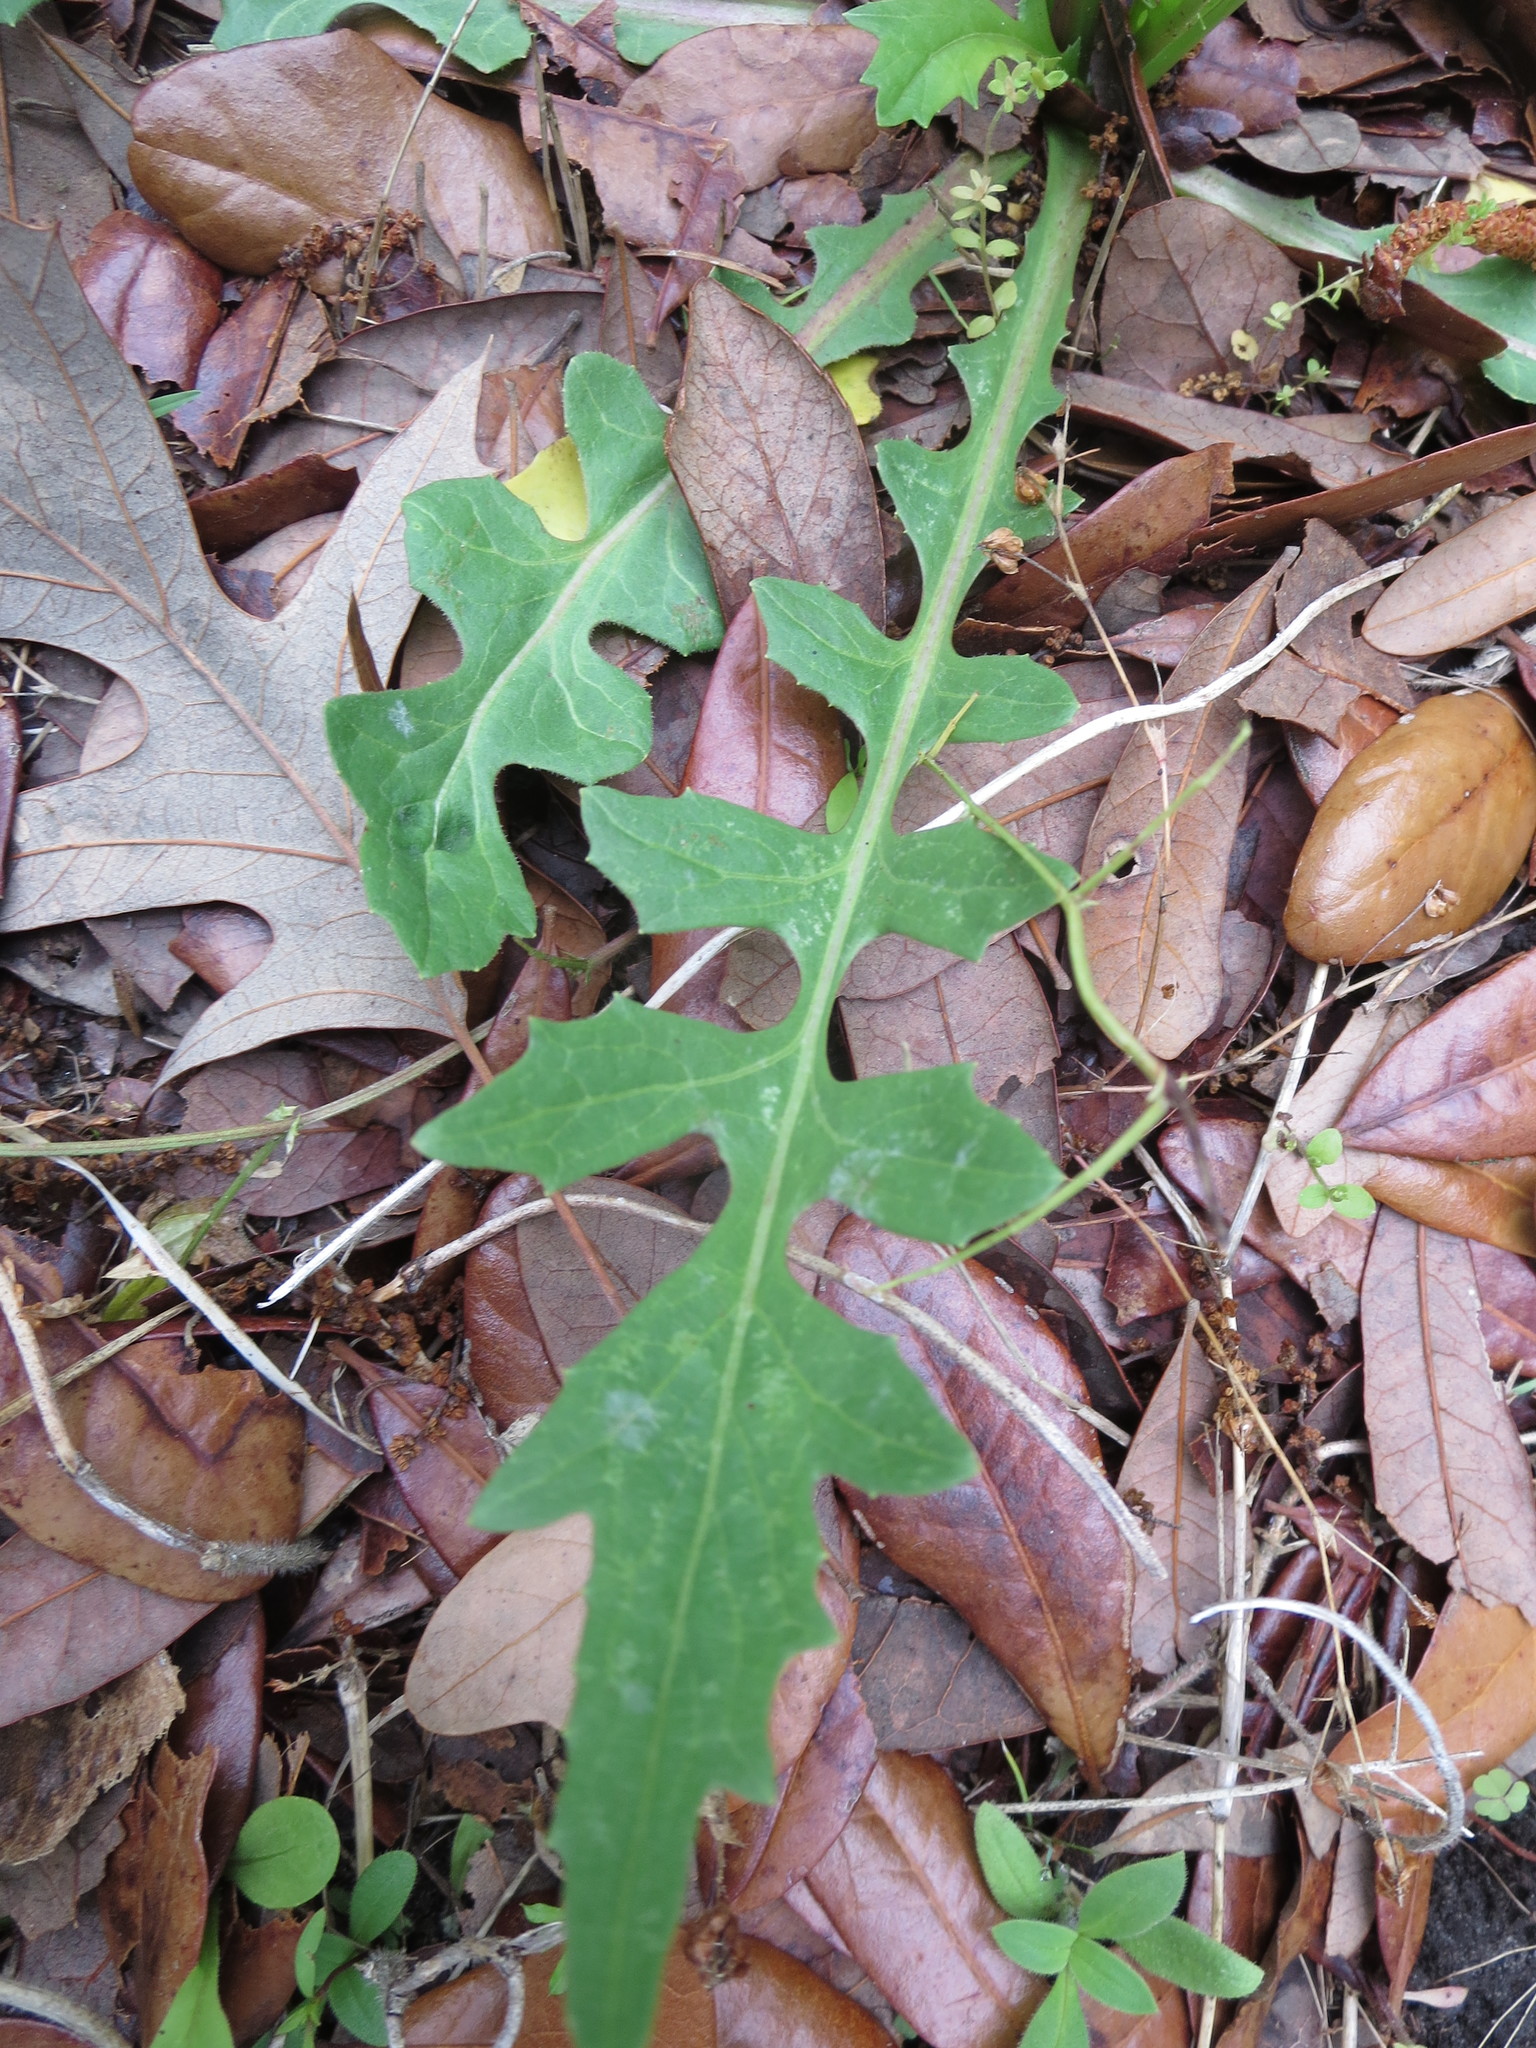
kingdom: Plantae
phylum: Tracheophyta
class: Magnoliopsida
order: Asterales
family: Asteraceae
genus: Pyrrhopappus
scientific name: Pyrrhopappus carolinianus
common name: Carolina desert-chicory
